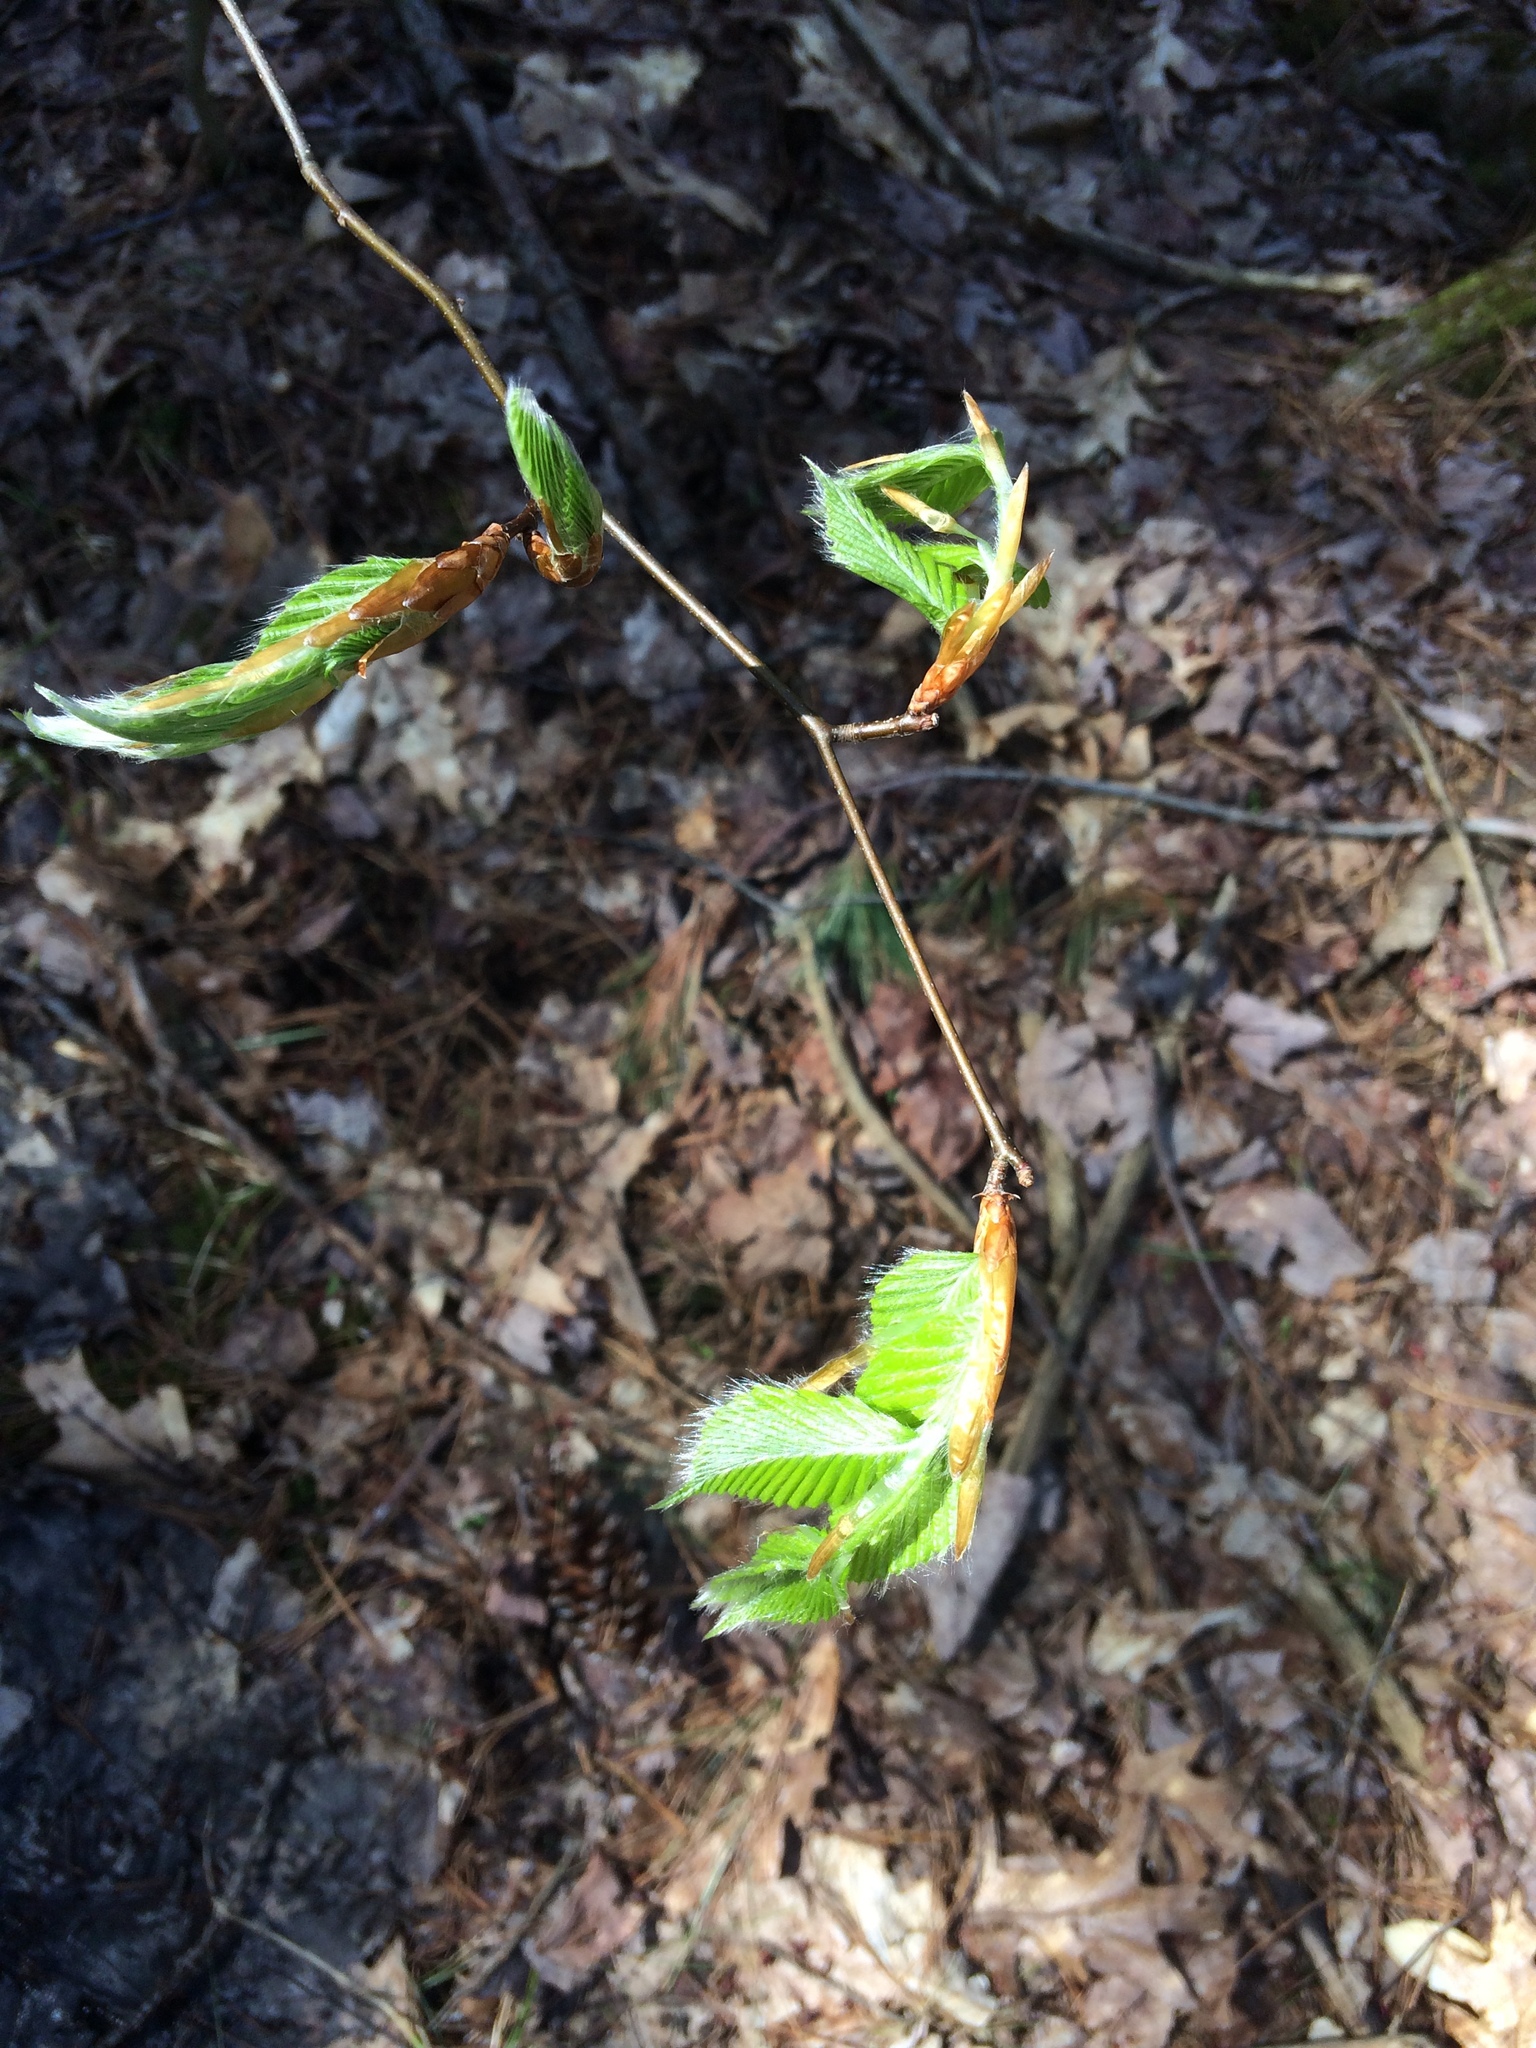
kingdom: Plantae
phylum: Tracheophyta
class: Magnoliopsida
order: Fagales
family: Fagaceae
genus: Fagus
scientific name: Fagus grandifolia
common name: American beech
